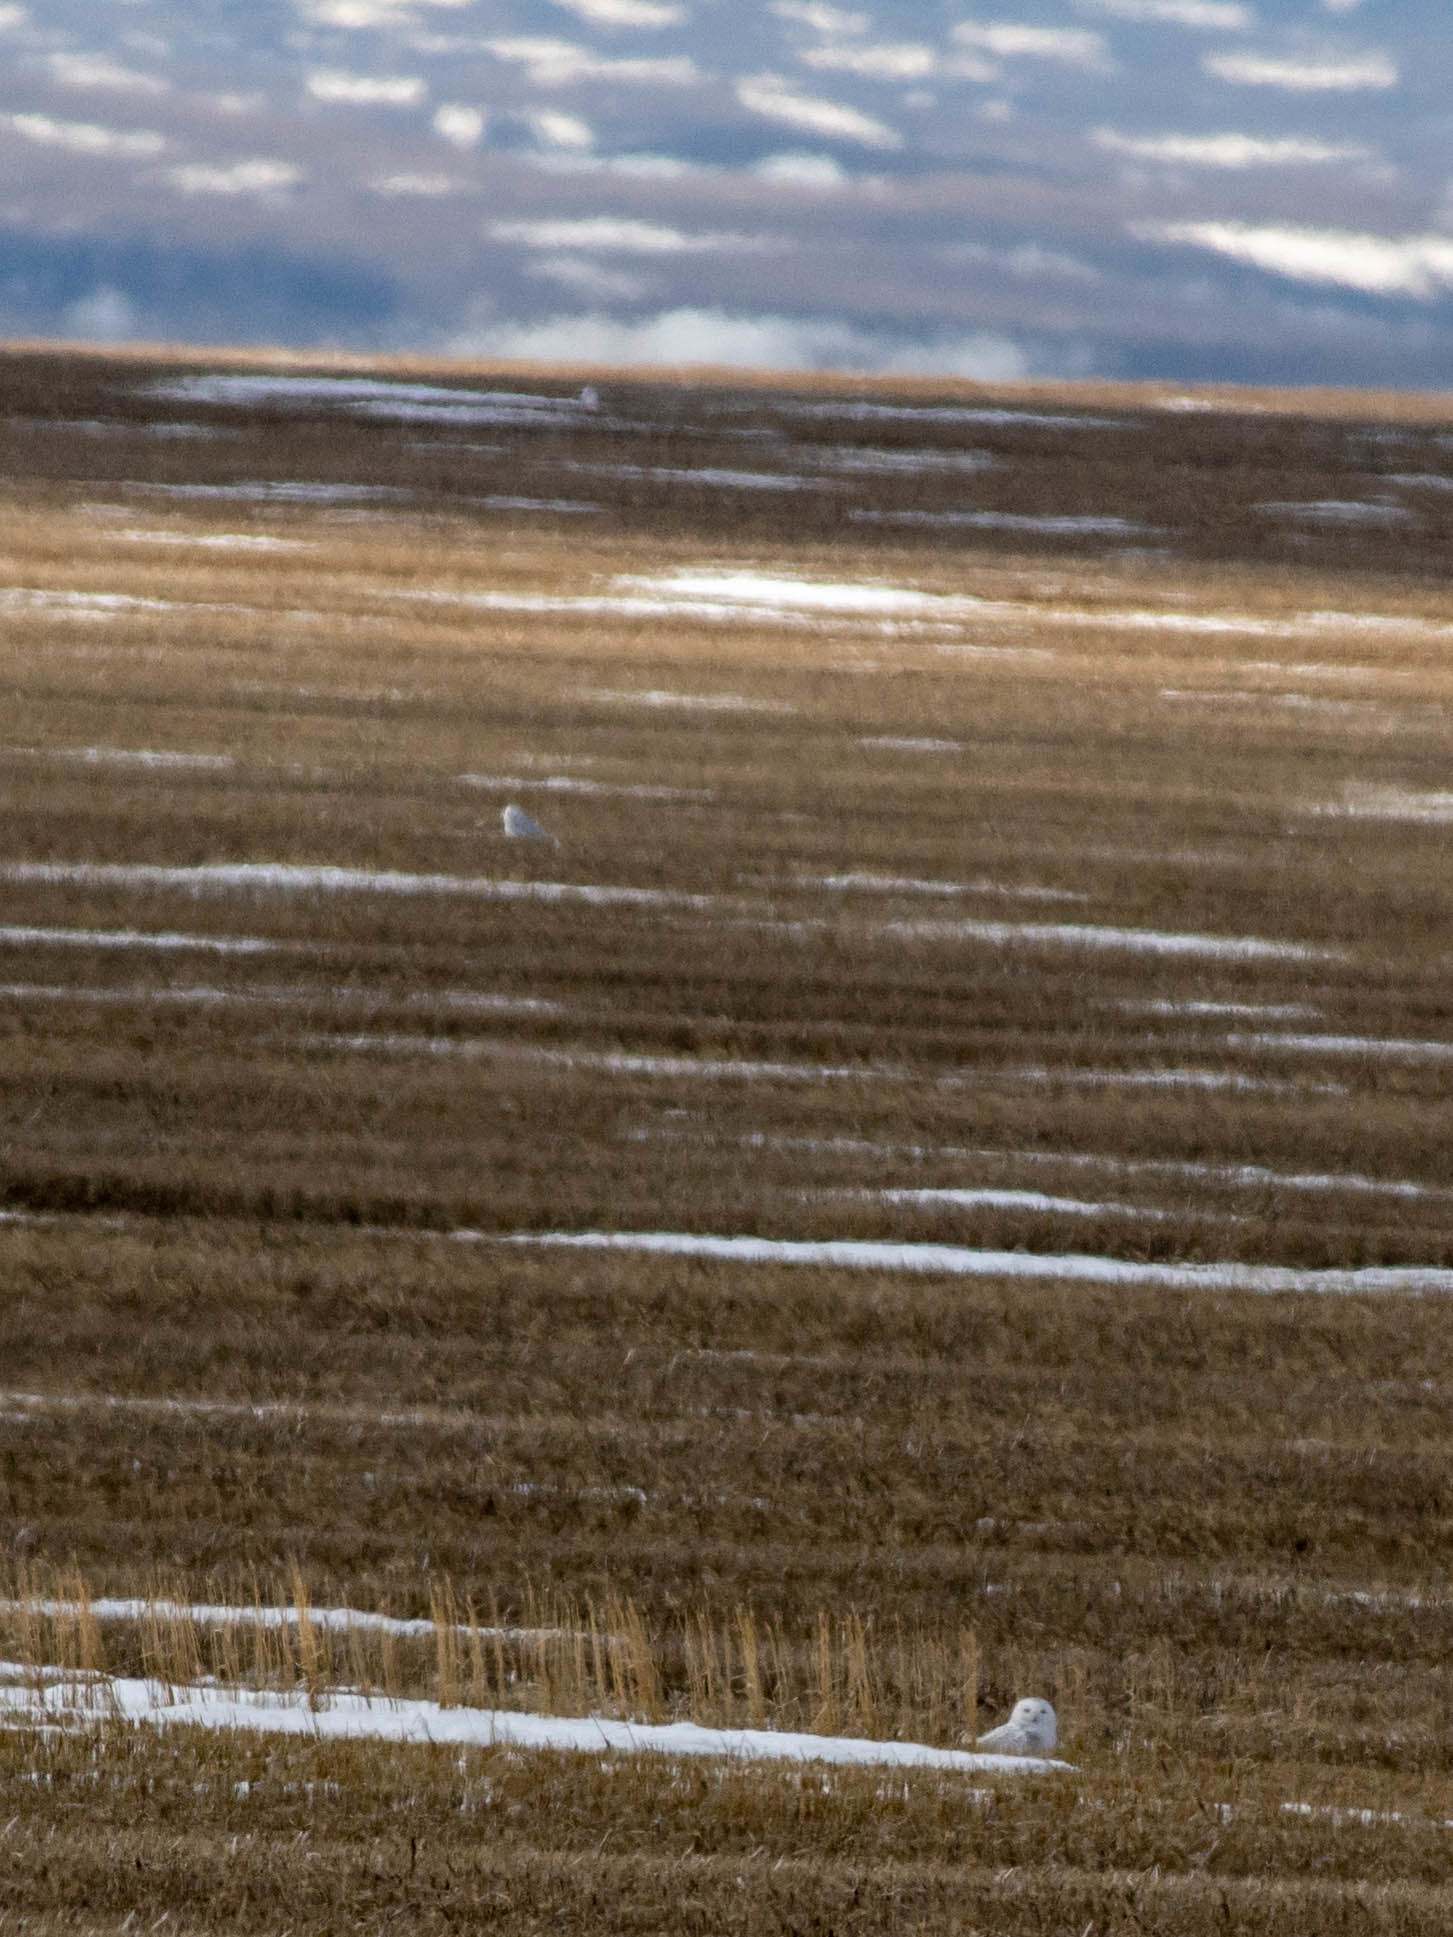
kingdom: Animalia
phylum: Chordata
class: Aves
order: Strigiformes
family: Strigidae
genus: Bubo
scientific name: Bubo scandiacus
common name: Snowy owl
